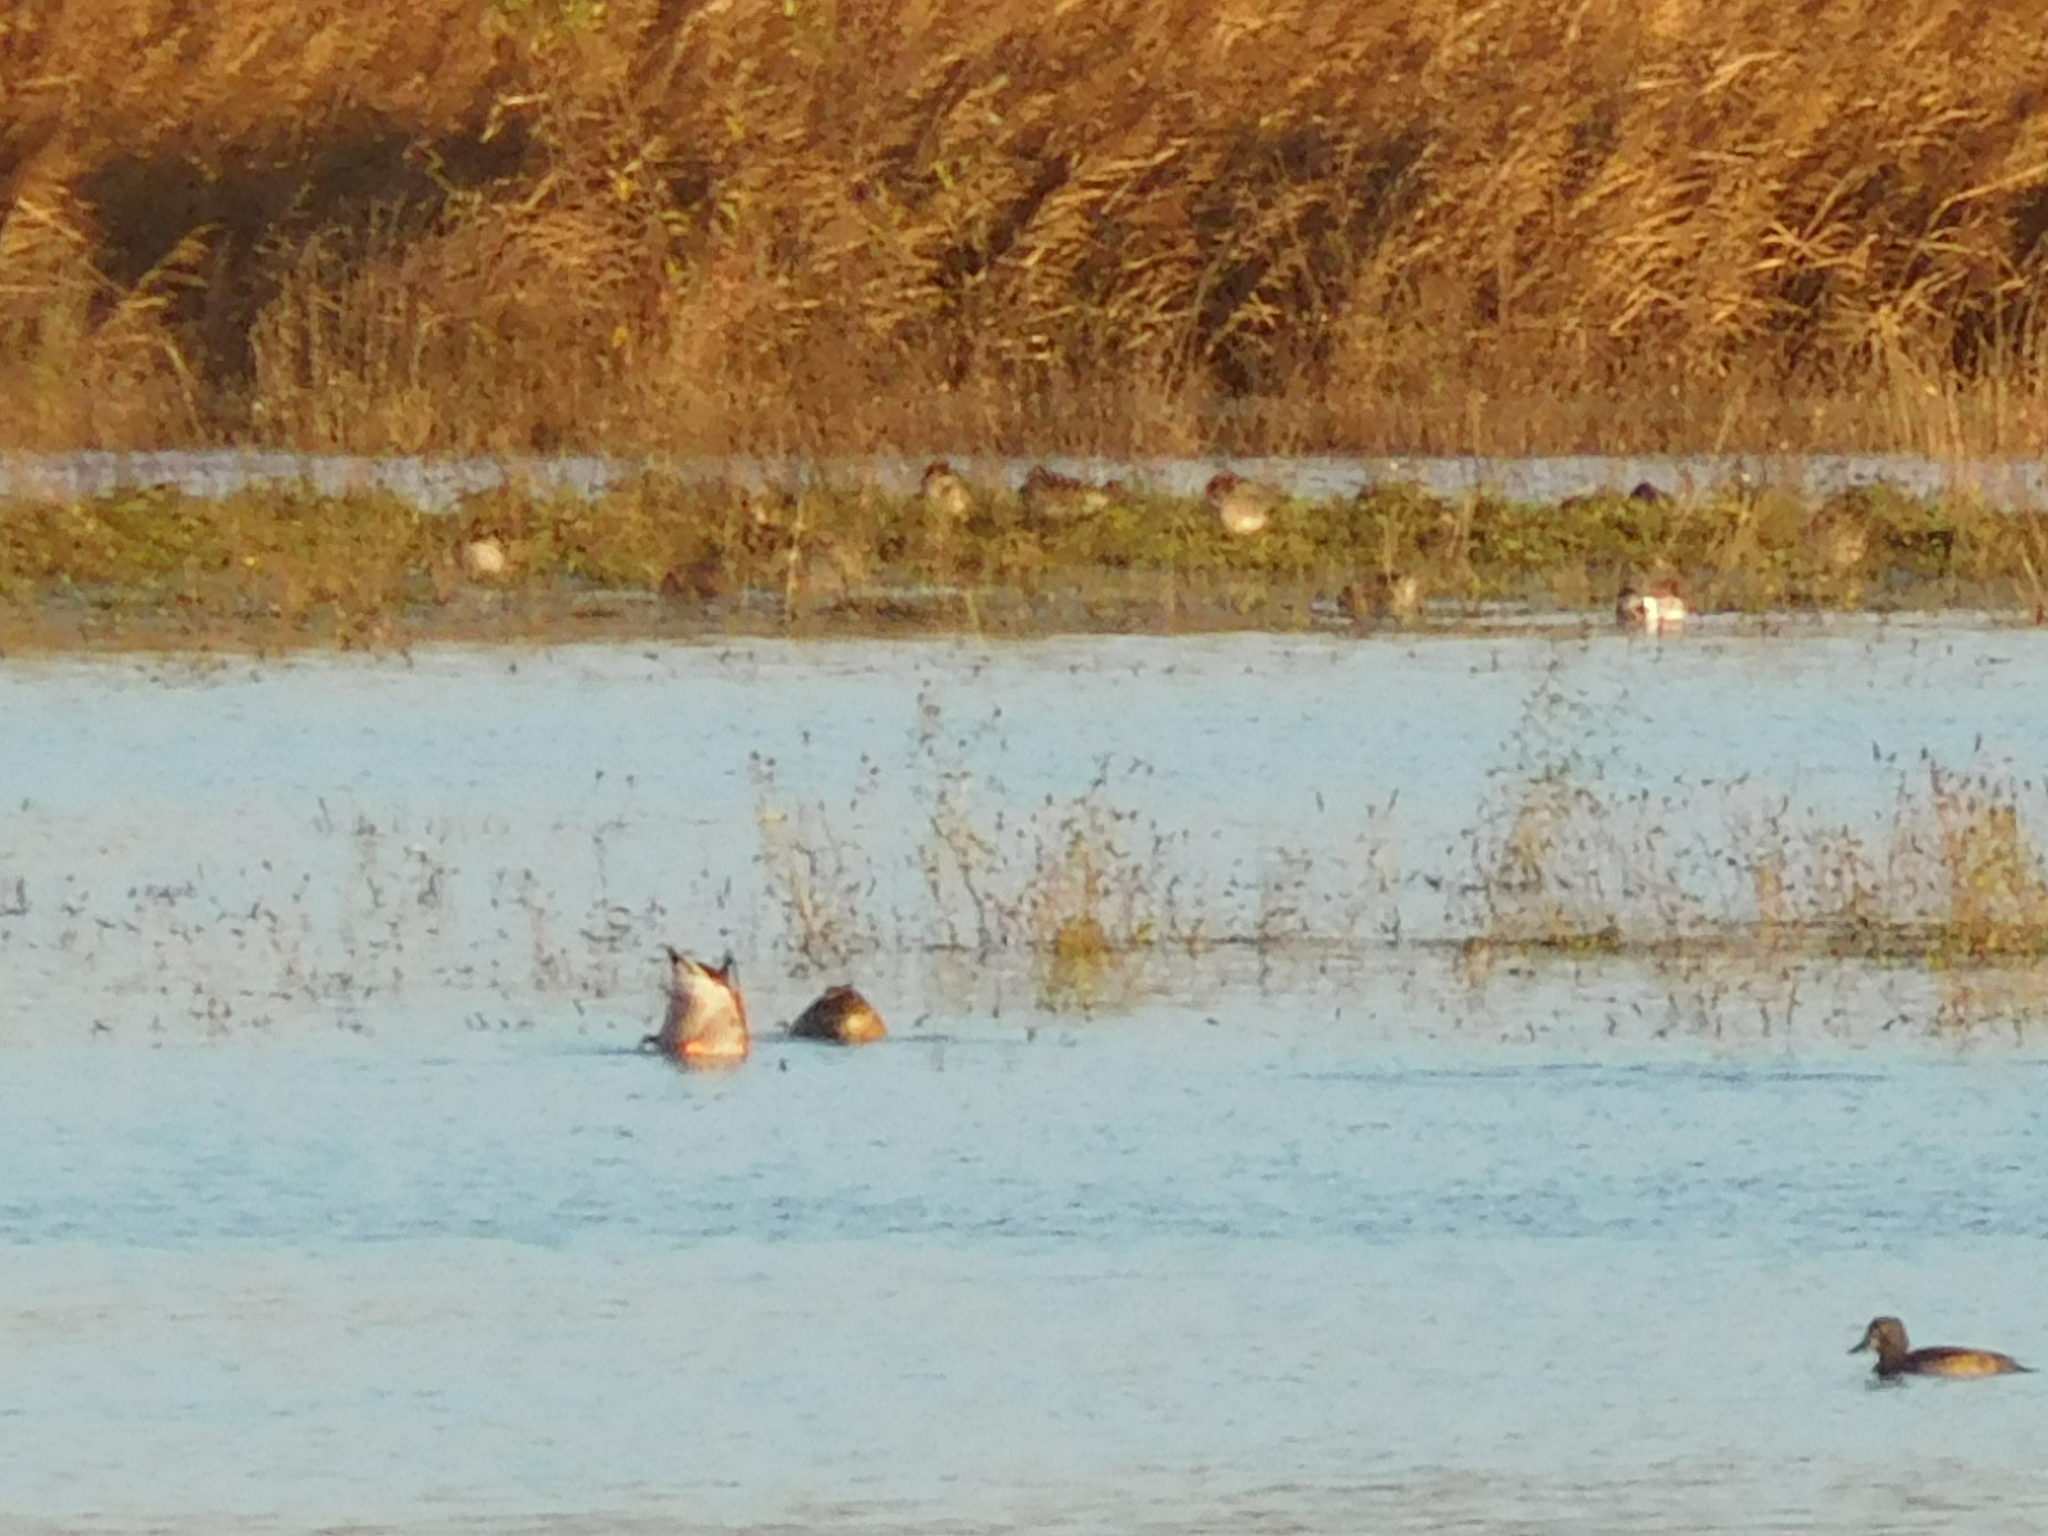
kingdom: Animalia
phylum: Chordata
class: Aves
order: Anseriformes
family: Anatidae
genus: Aythya
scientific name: Aythya fuligula
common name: Tufted duck
